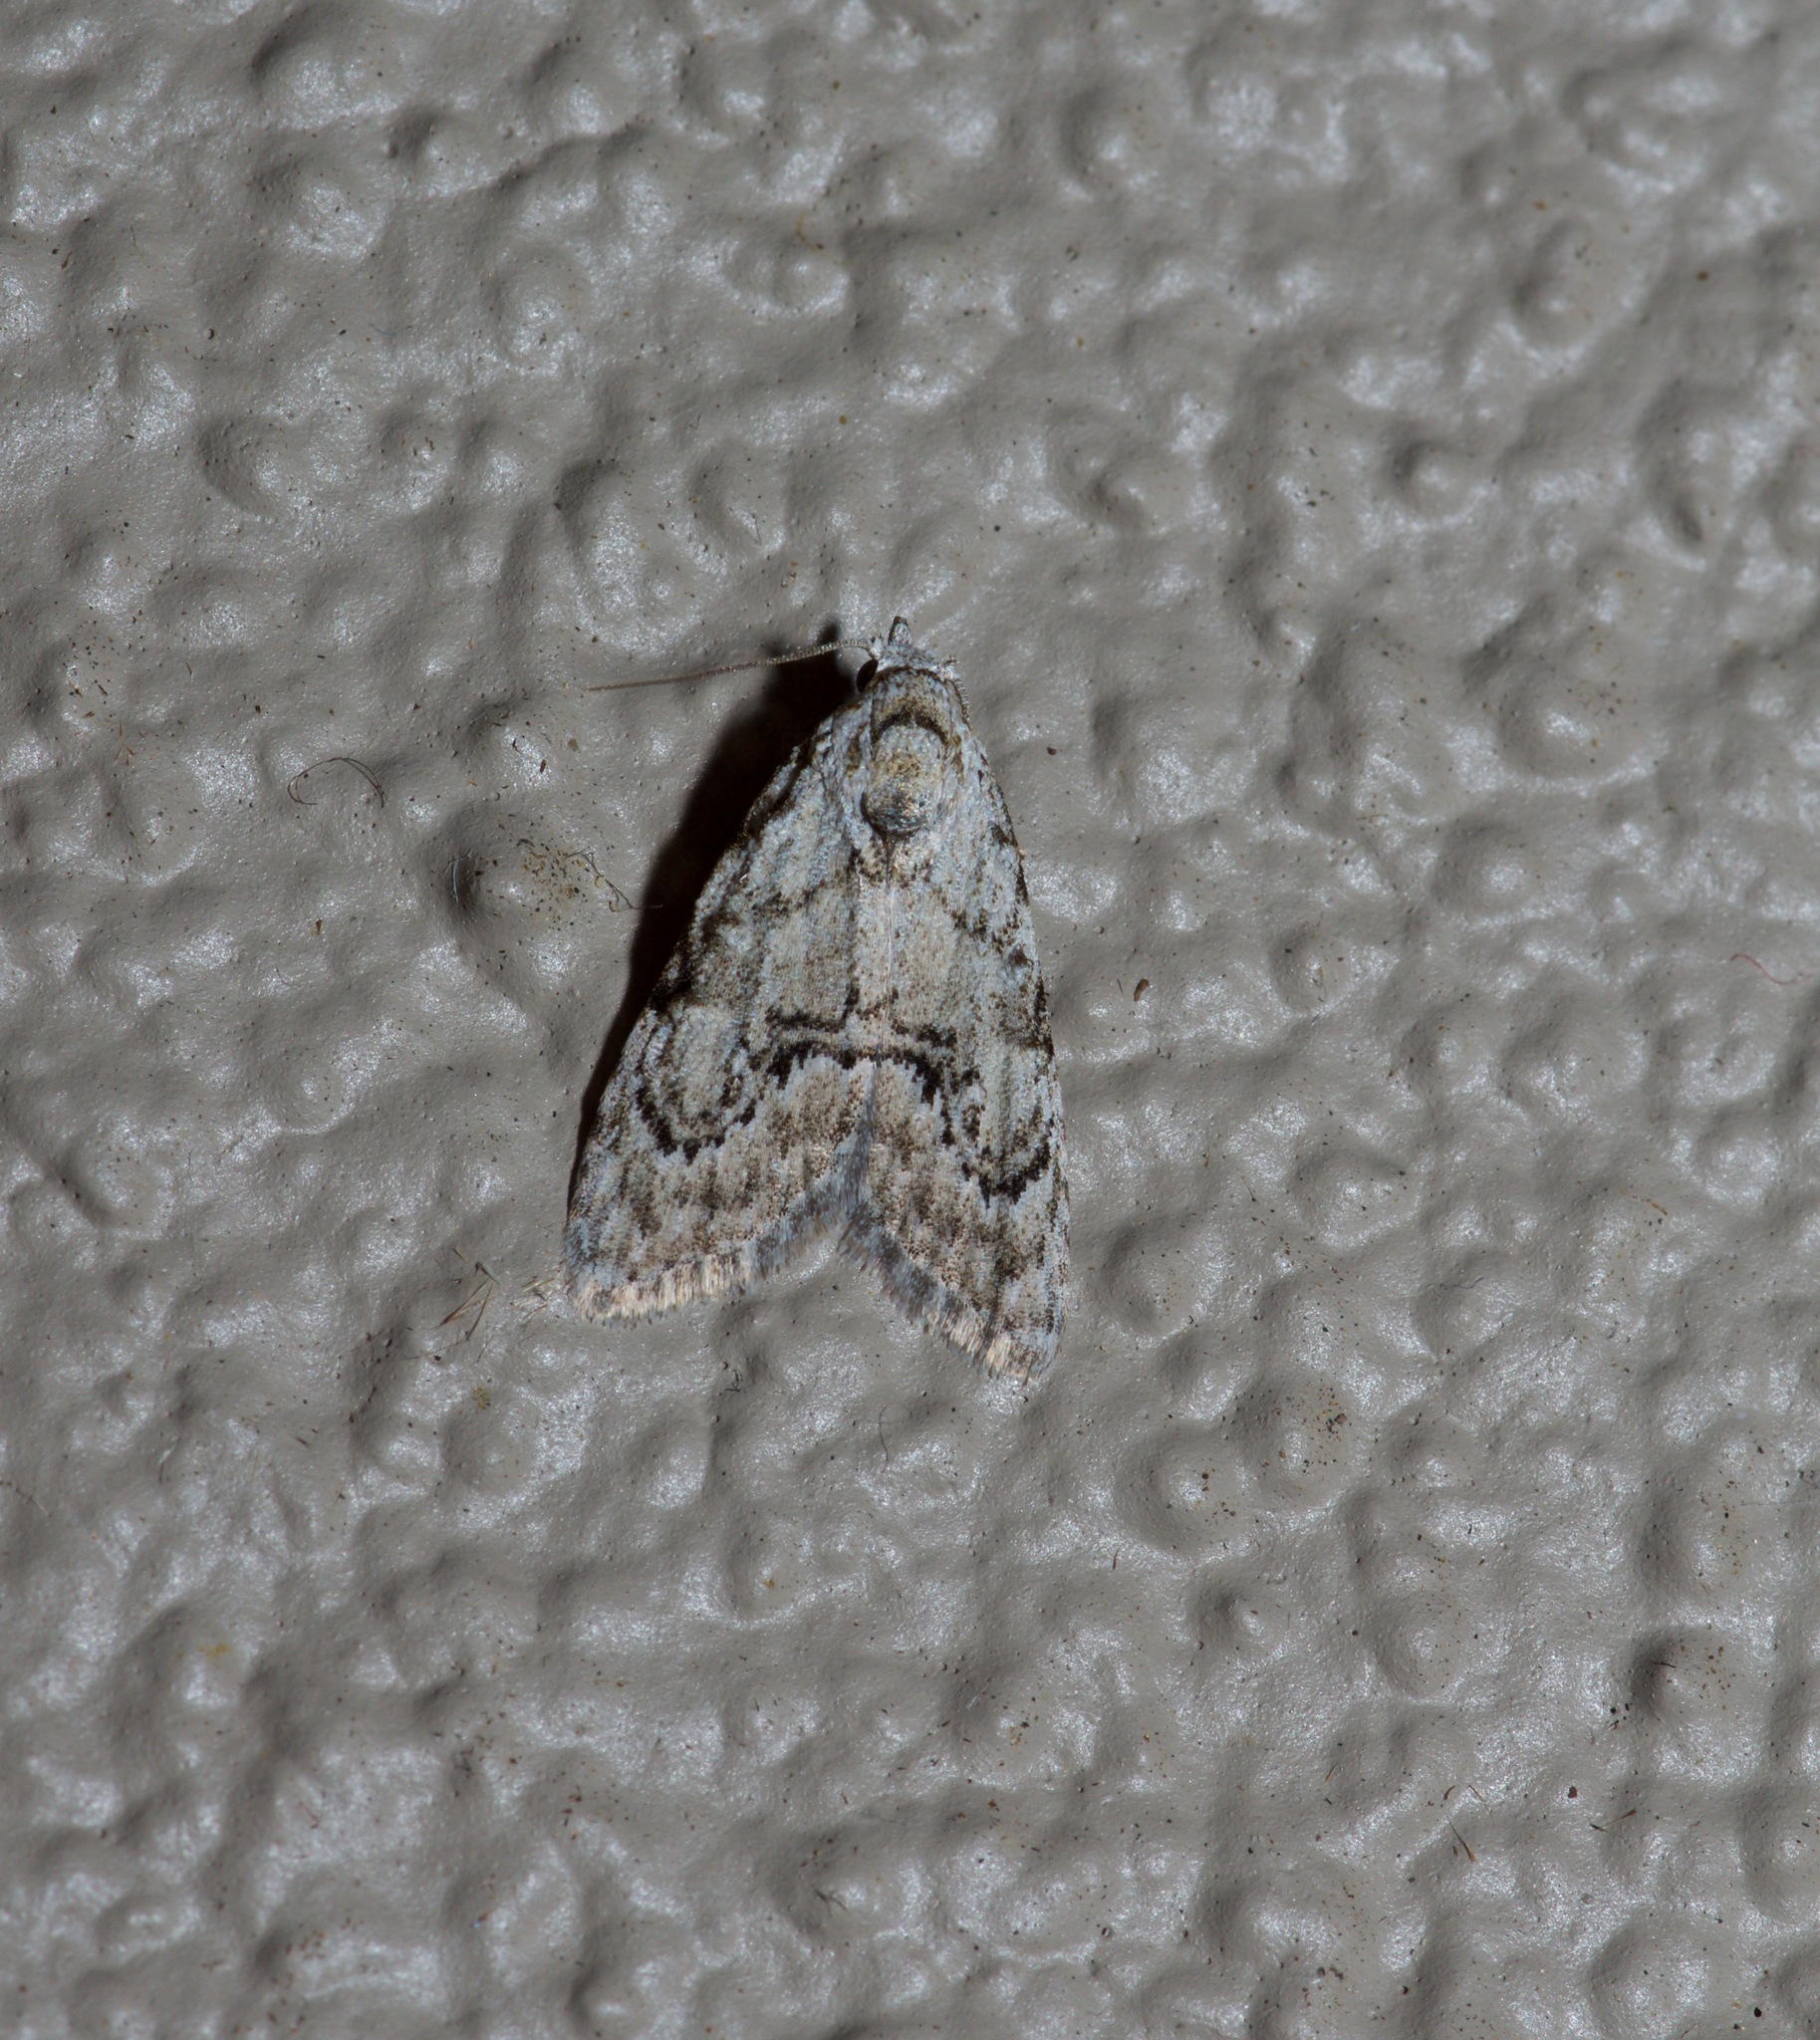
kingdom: Animalia
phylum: Arthropoda
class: Insecta
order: Lepidoptera
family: Nolidae
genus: Meganola
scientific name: Meganola spodia
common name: Ashy meganola moth
